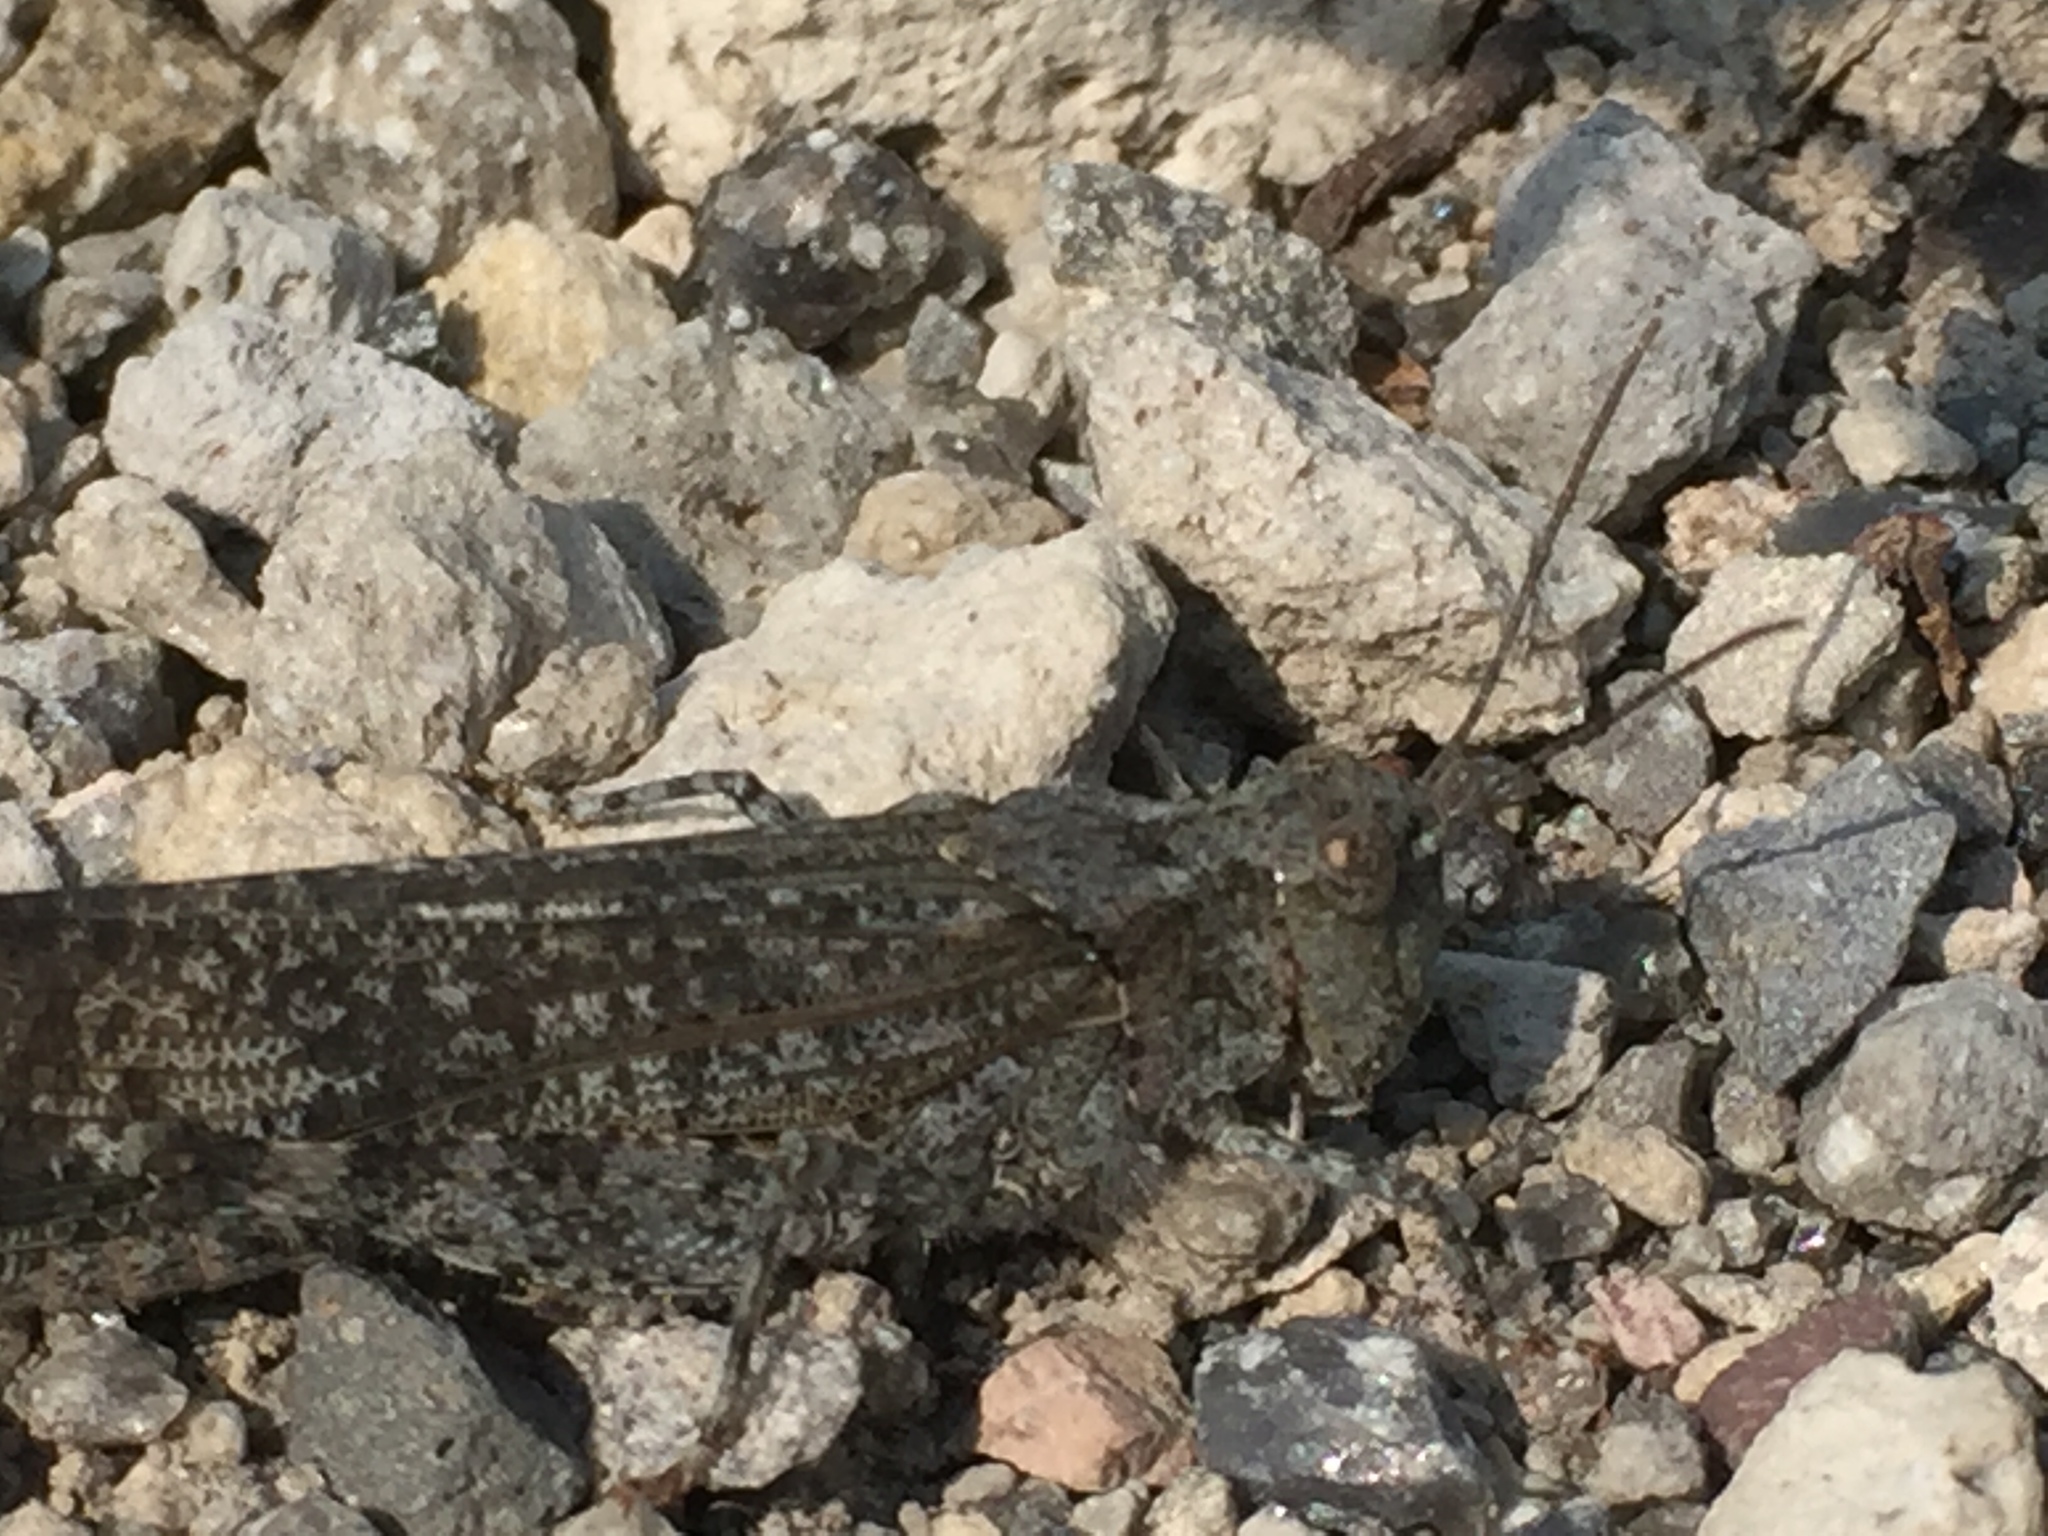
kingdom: Animalia
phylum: Arthropoda
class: Insecta
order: Orthoptera
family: Acrididae
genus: Circotettix
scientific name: Circotettix undulatus
